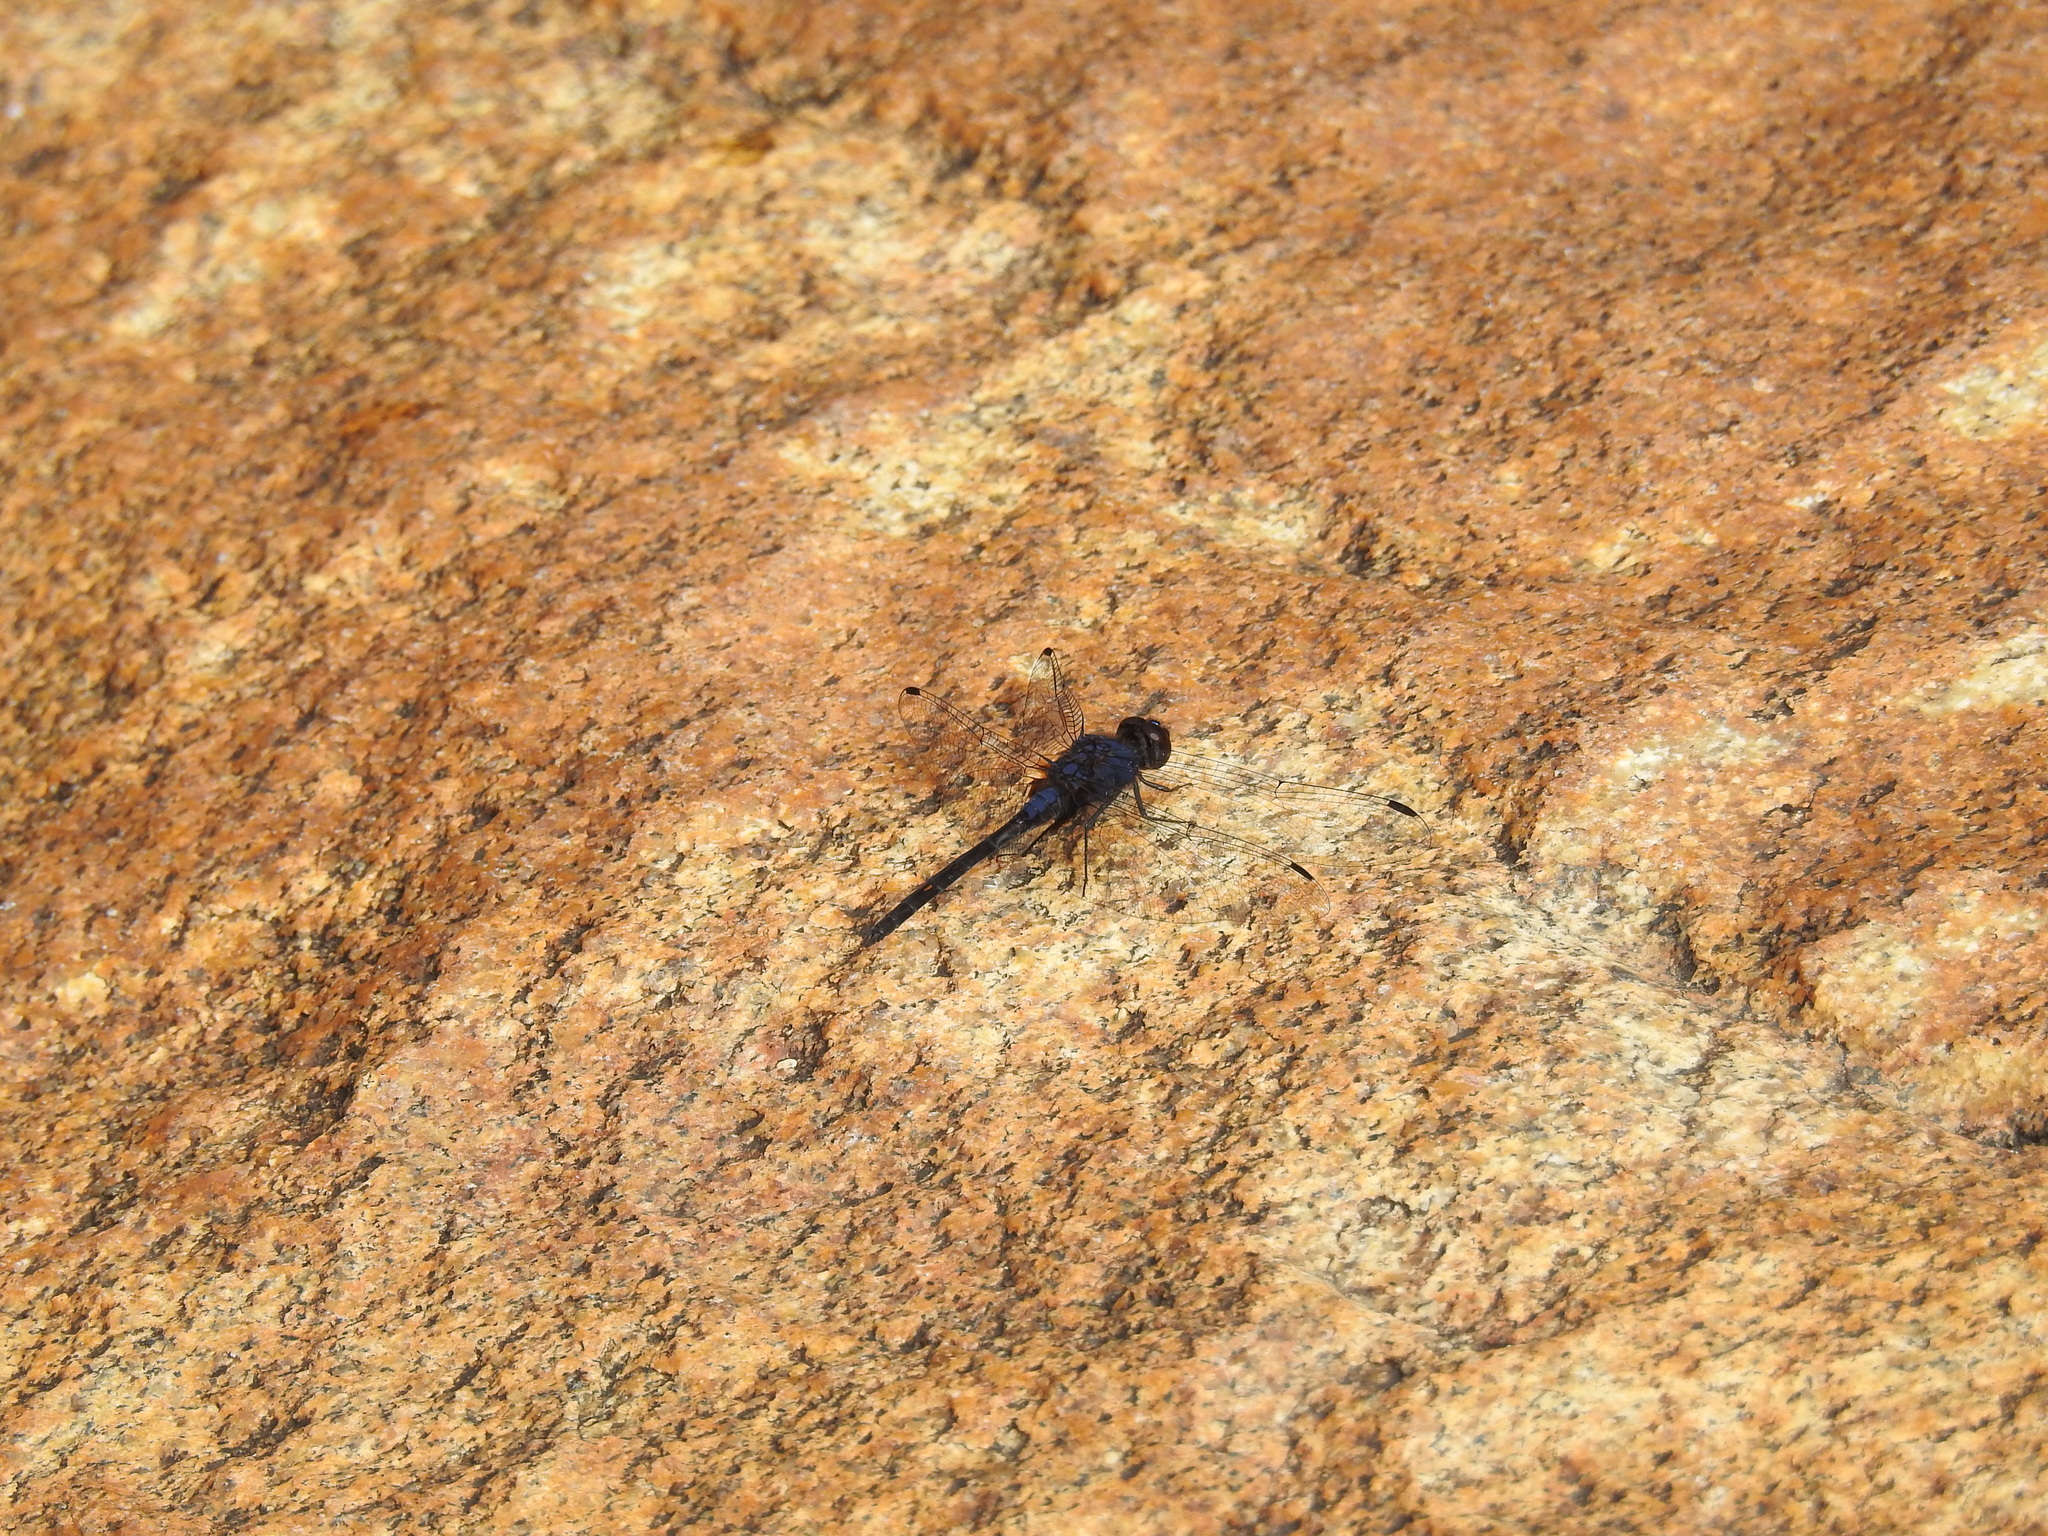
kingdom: Animalia
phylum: Arthropoda
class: Insecta
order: Odonata
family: Libellulidae
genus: Trithemis
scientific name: Trithemis festiva
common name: Indigo dropwing
